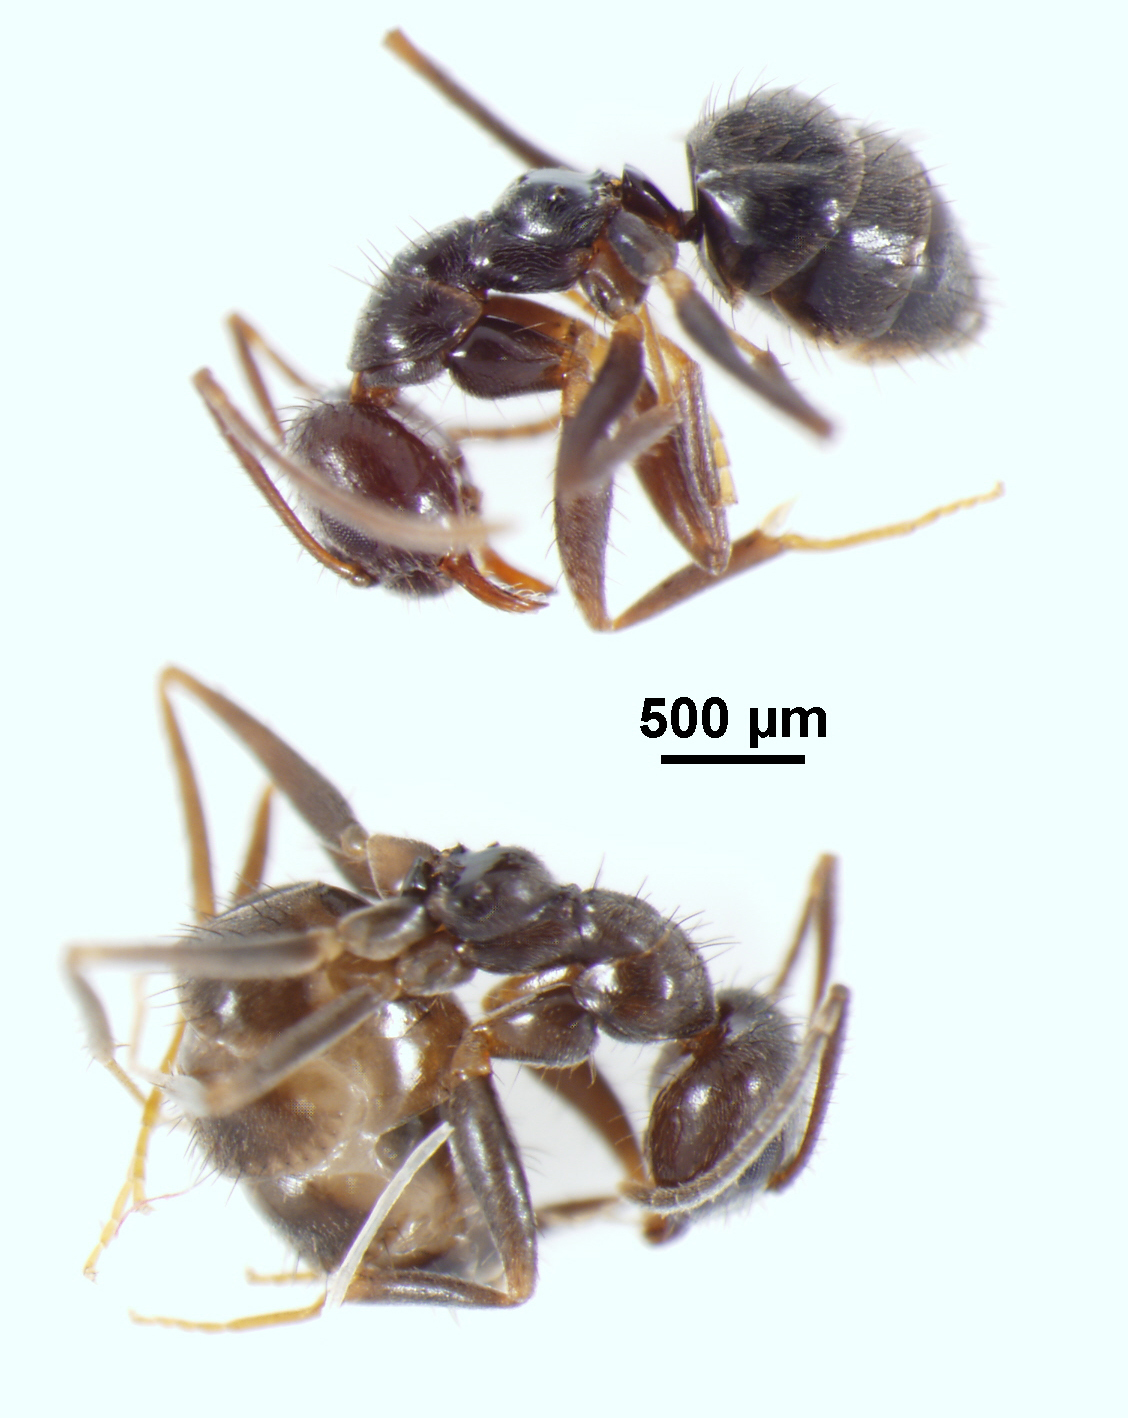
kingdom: Animalia
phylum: Arthropoda
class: Insecta
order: Hymenoptera
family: Formicidae
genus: Paratrechina
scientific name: Paratrechina bourbonica
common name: Ant
